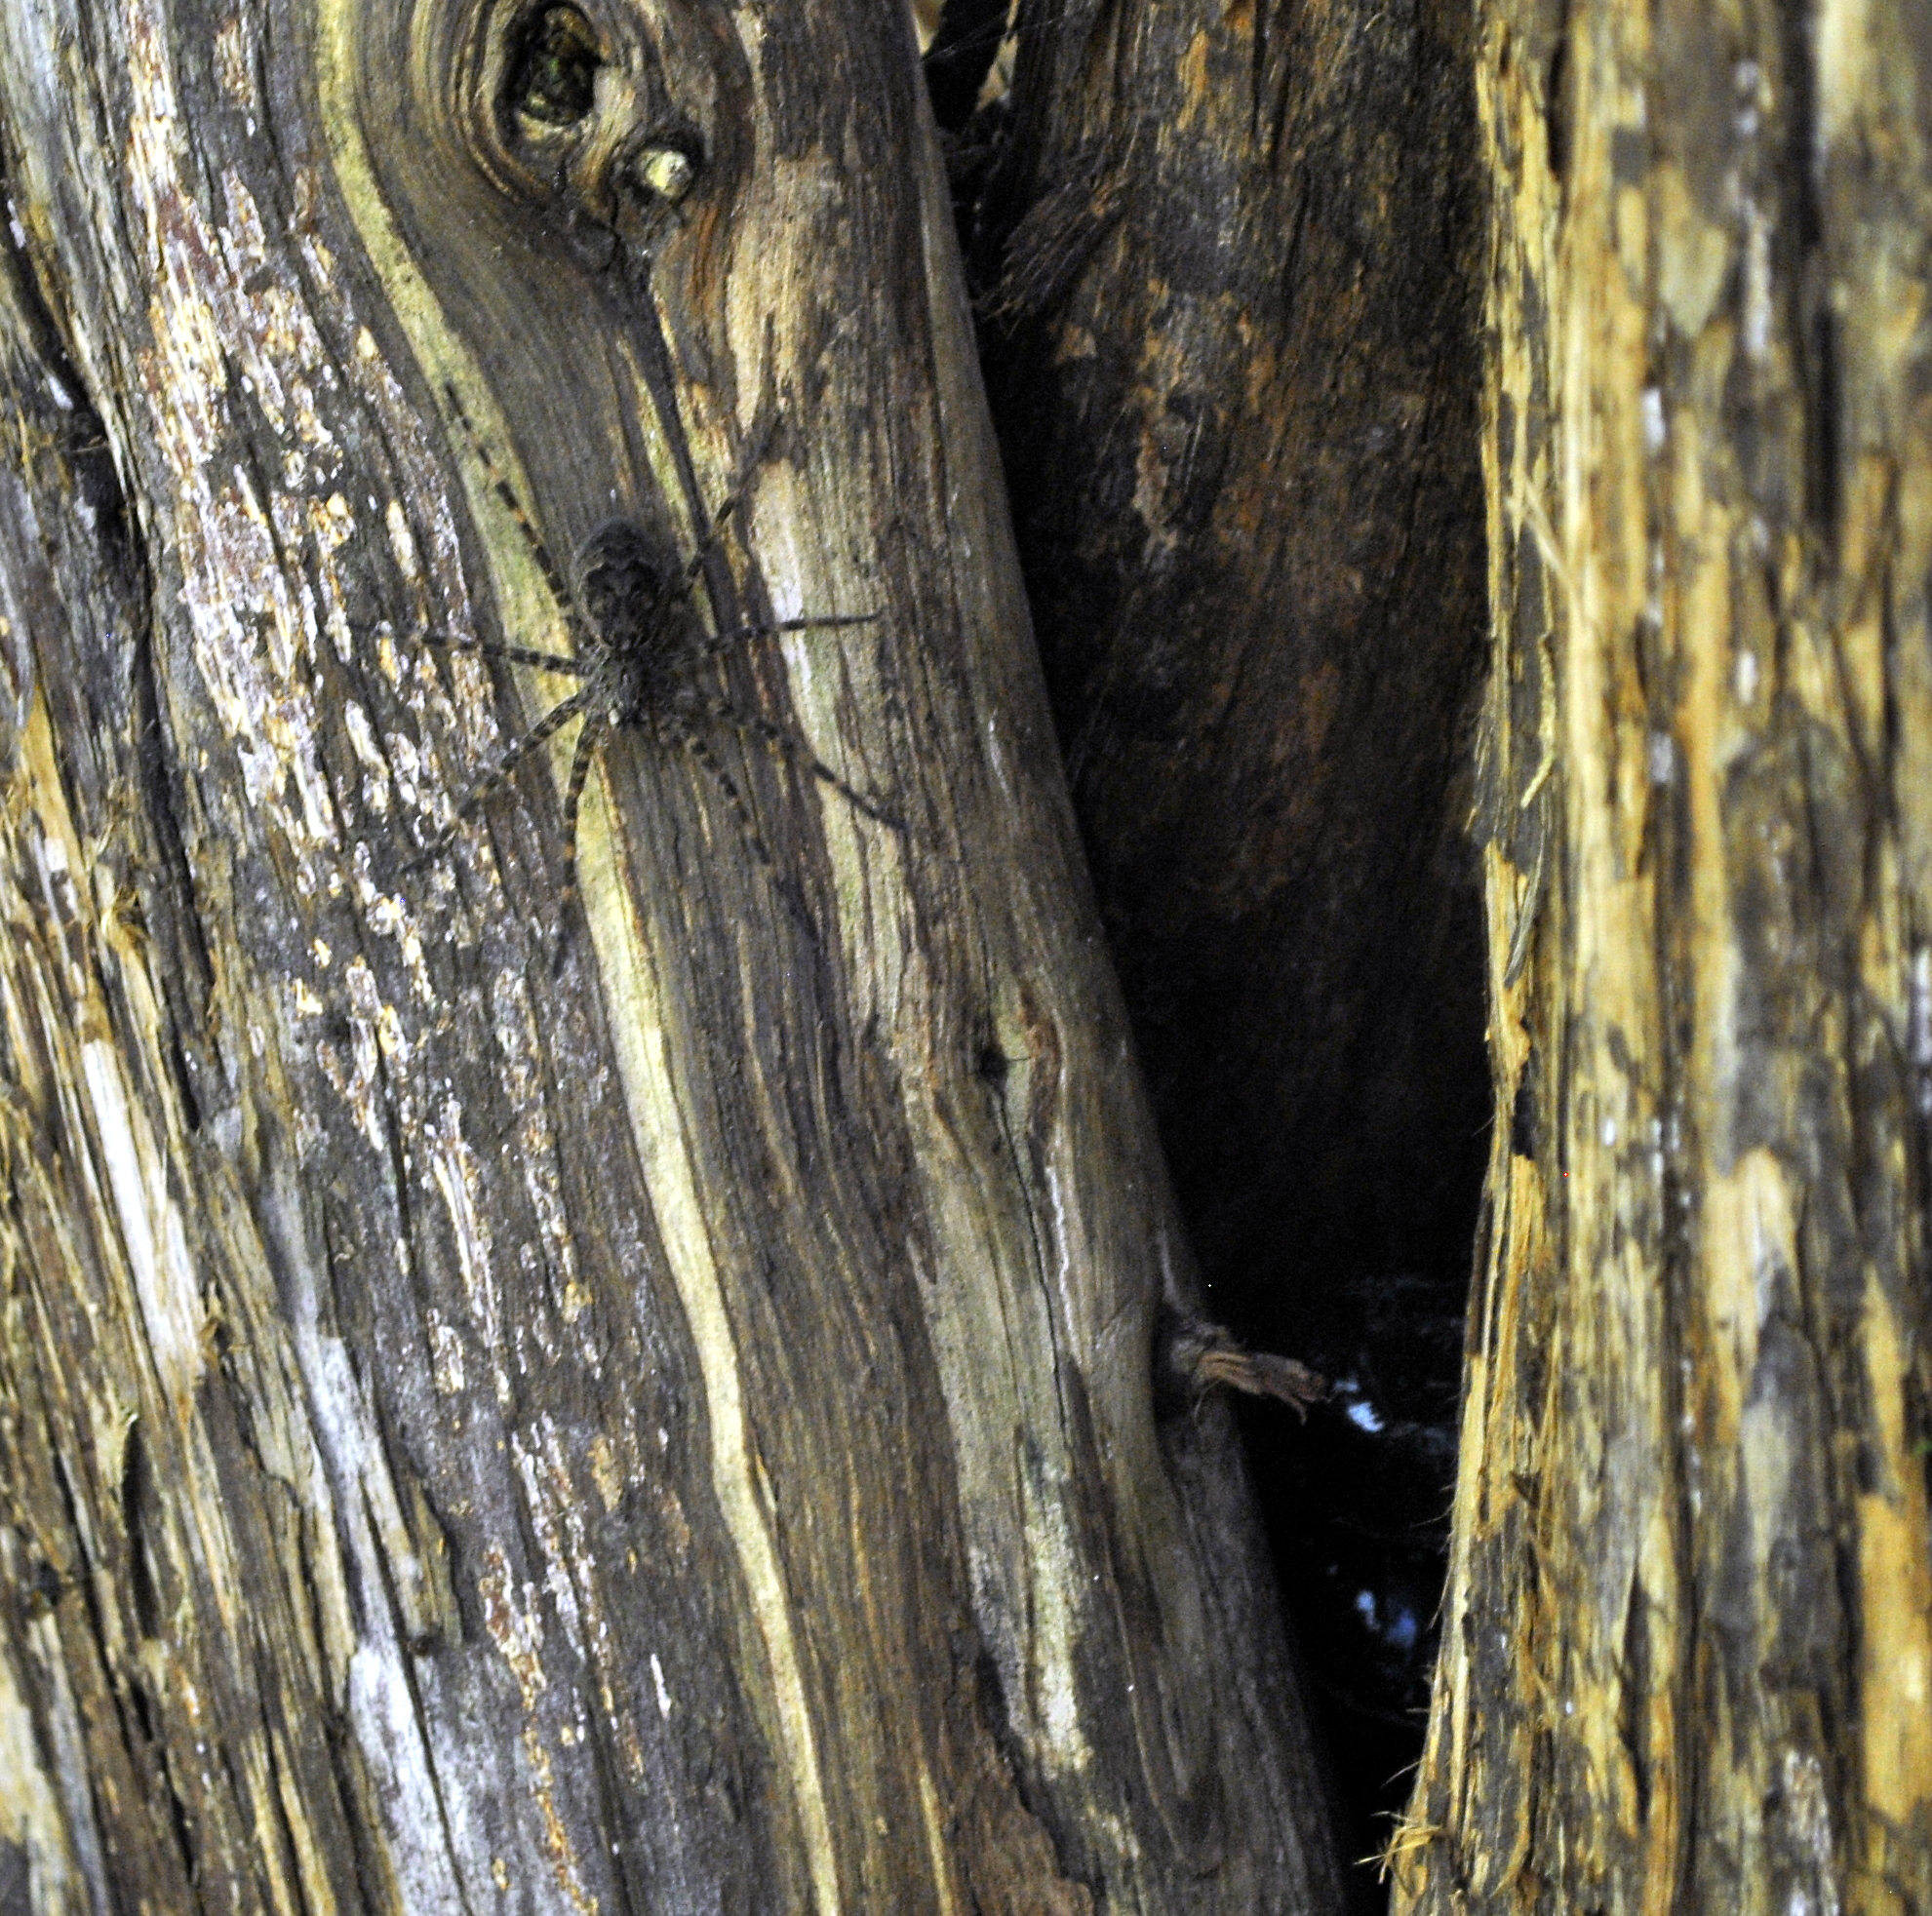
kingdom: Animalia
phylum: Arthropoda
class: Arachnida
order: Araneae
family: Pisauridae
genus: Dolomedes
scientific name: Dolomedes tenebrosus
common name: Dark fishing spider
